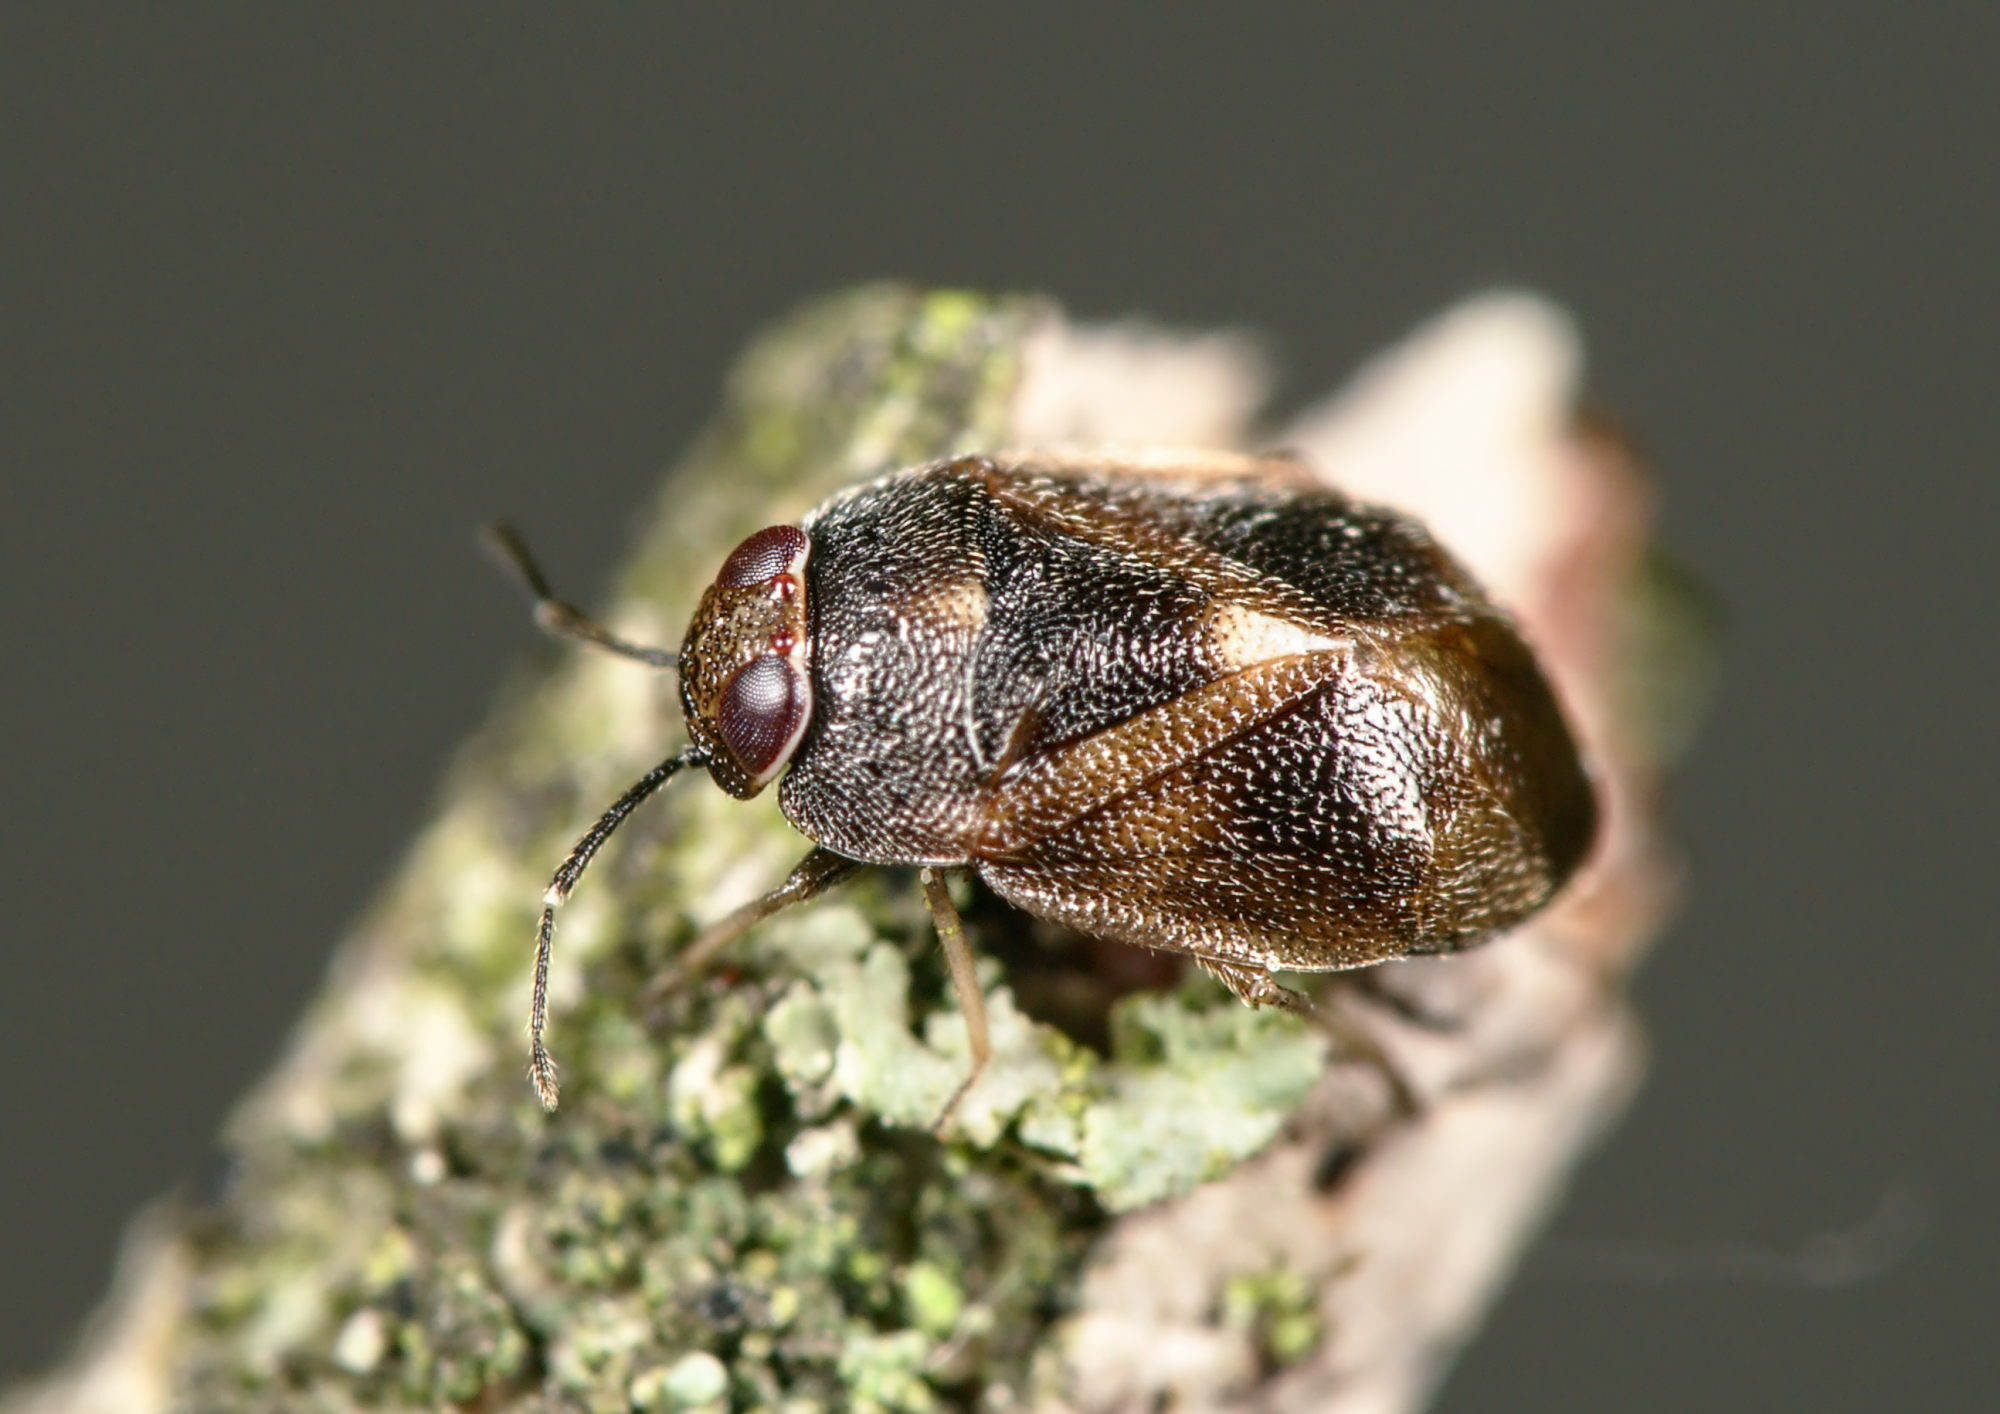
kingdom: Animalia
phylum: Arthropoda
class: Insecta
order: Hemiptera
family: Miridae
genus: Isometopus
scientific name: Isometopus intrusus
